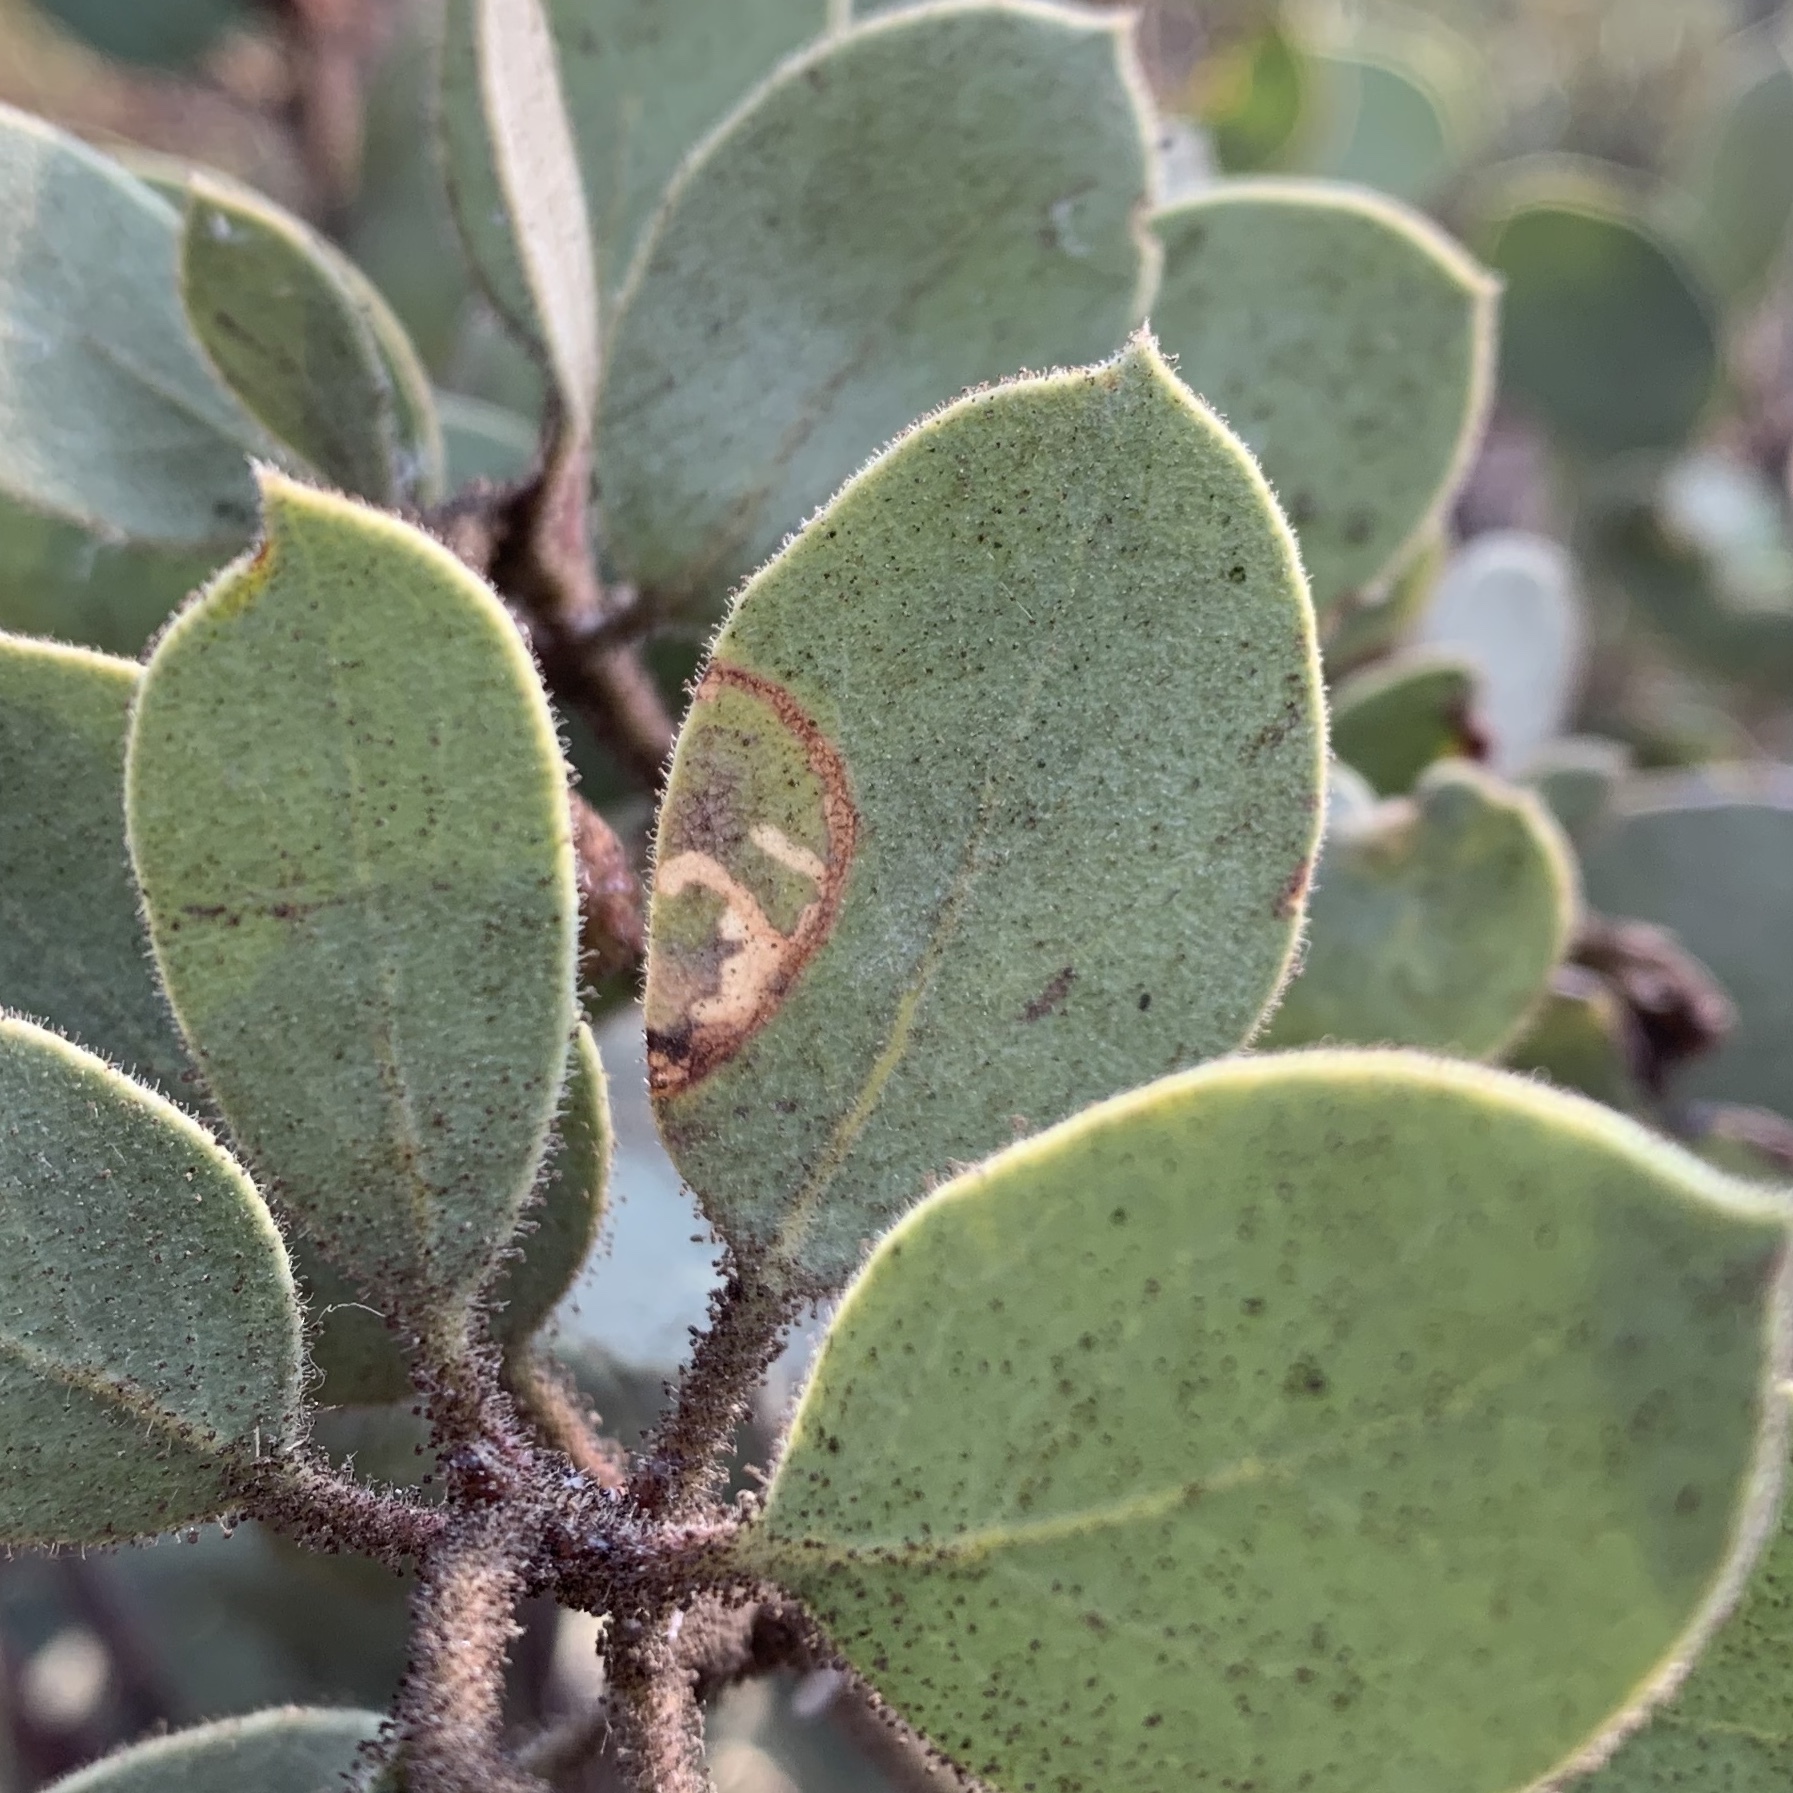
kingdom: Animalia
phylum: Arthropoda
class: Insecta
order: Lepidoptera
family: Tortricidae
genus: Epinotia
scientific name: Epinotia nigralbana
